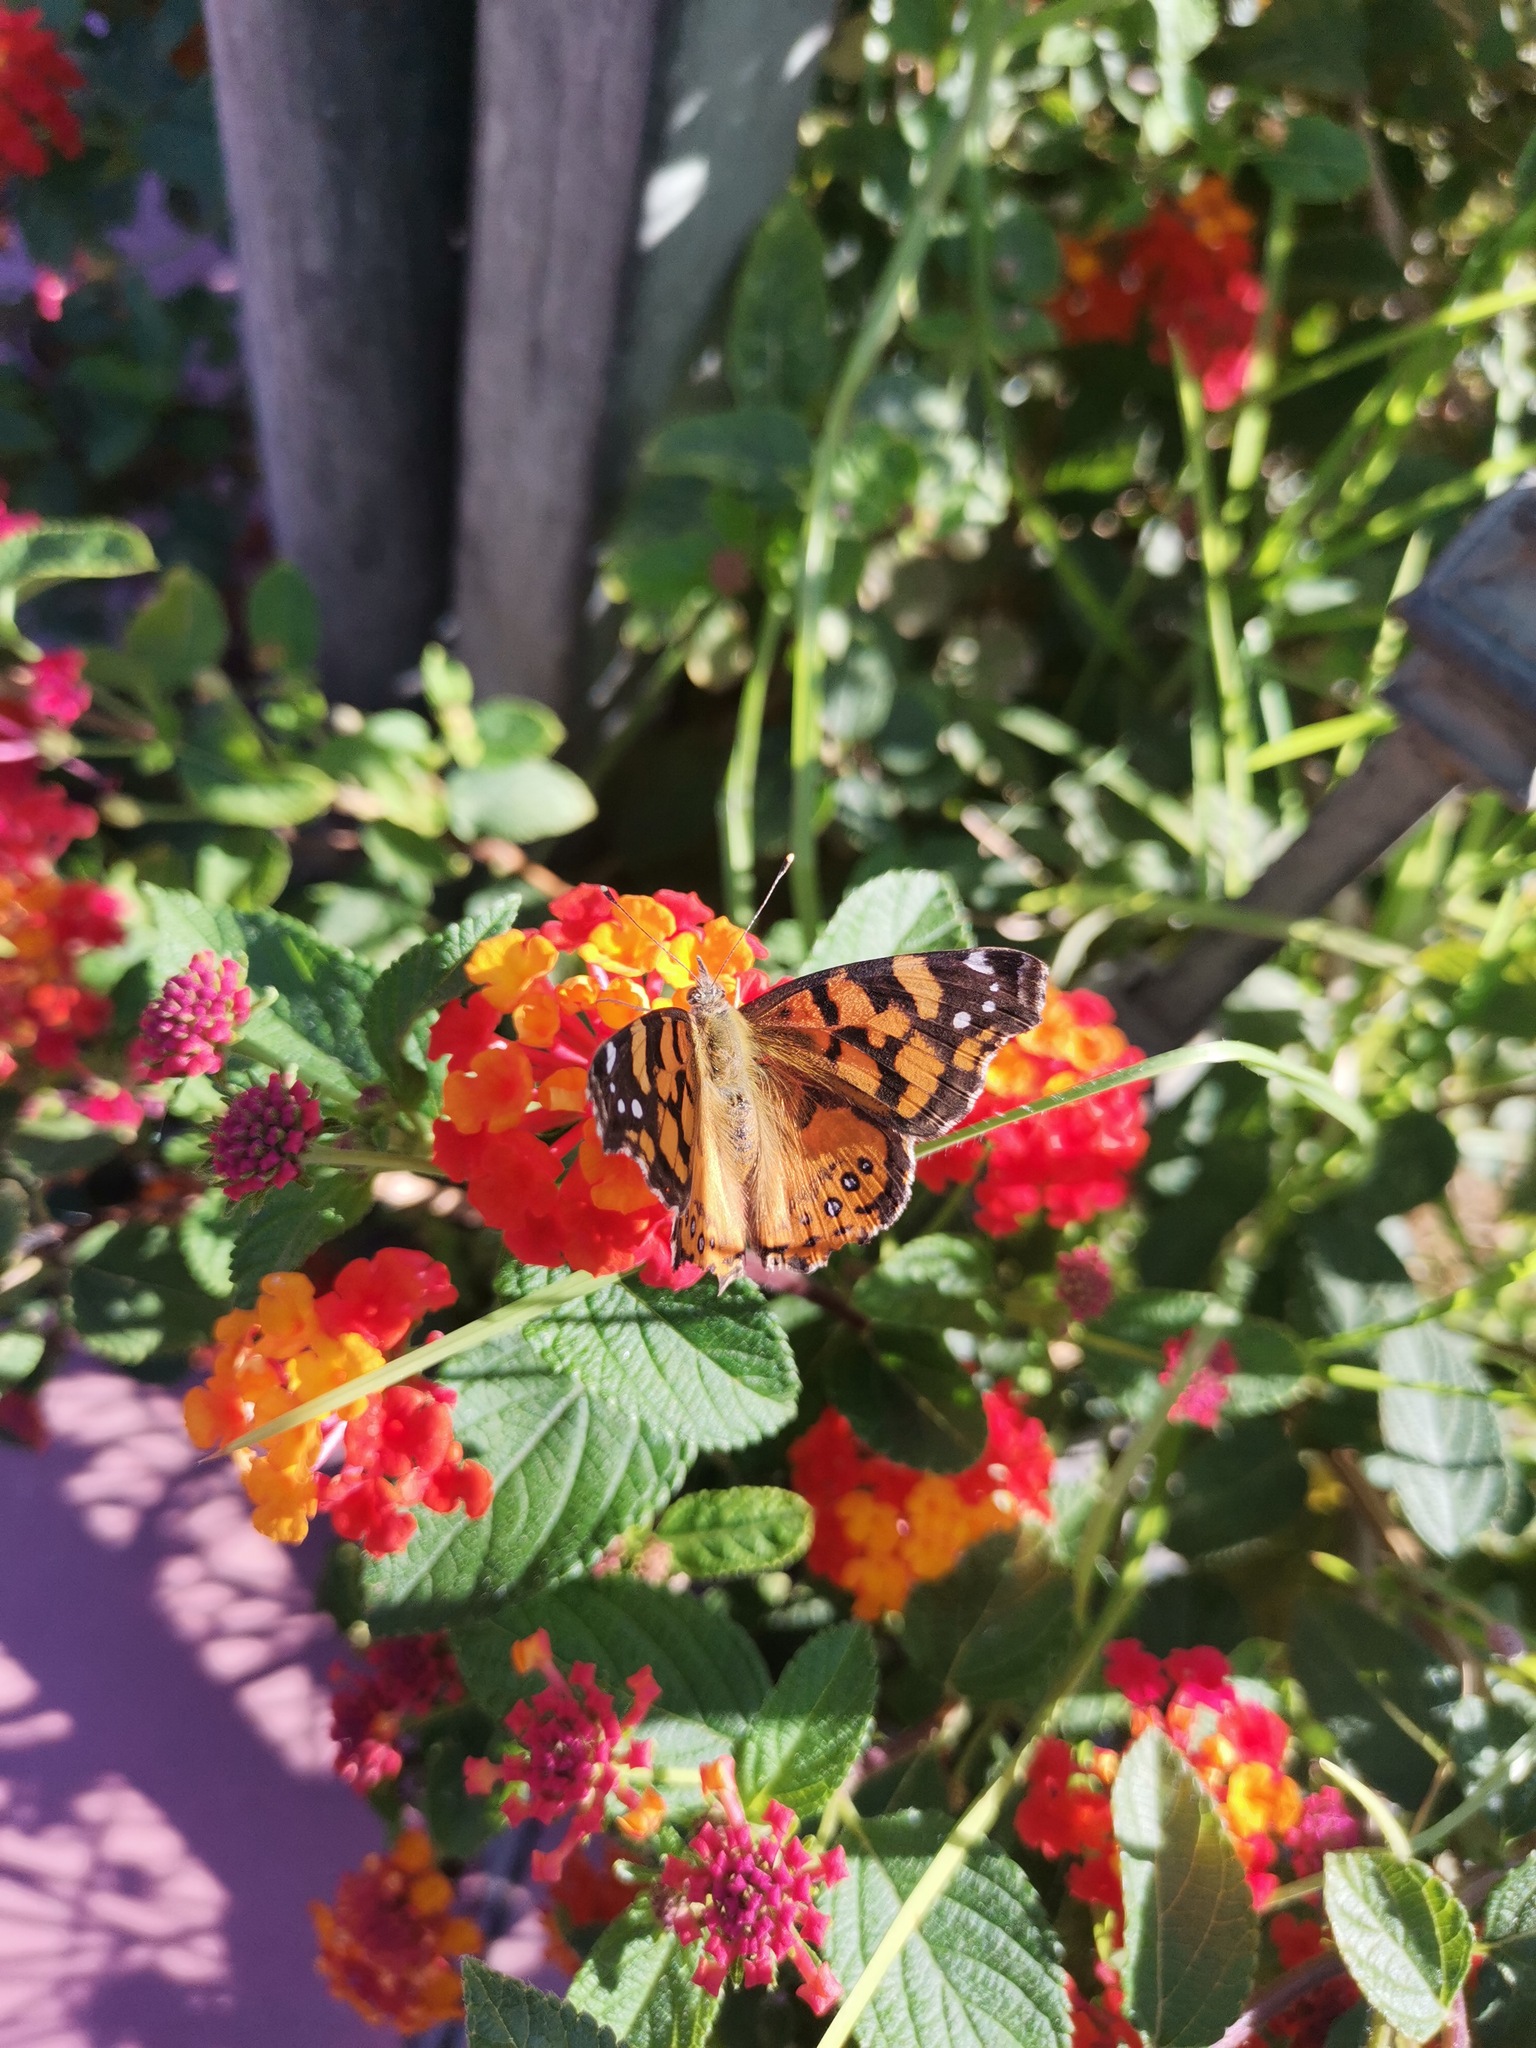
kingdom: Animalia
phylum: Arthropoda
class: Insecta
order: Lepidoptera
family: Nymphalidae
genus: Vanessa
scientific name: Vanessa annabella
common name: West coast lady
